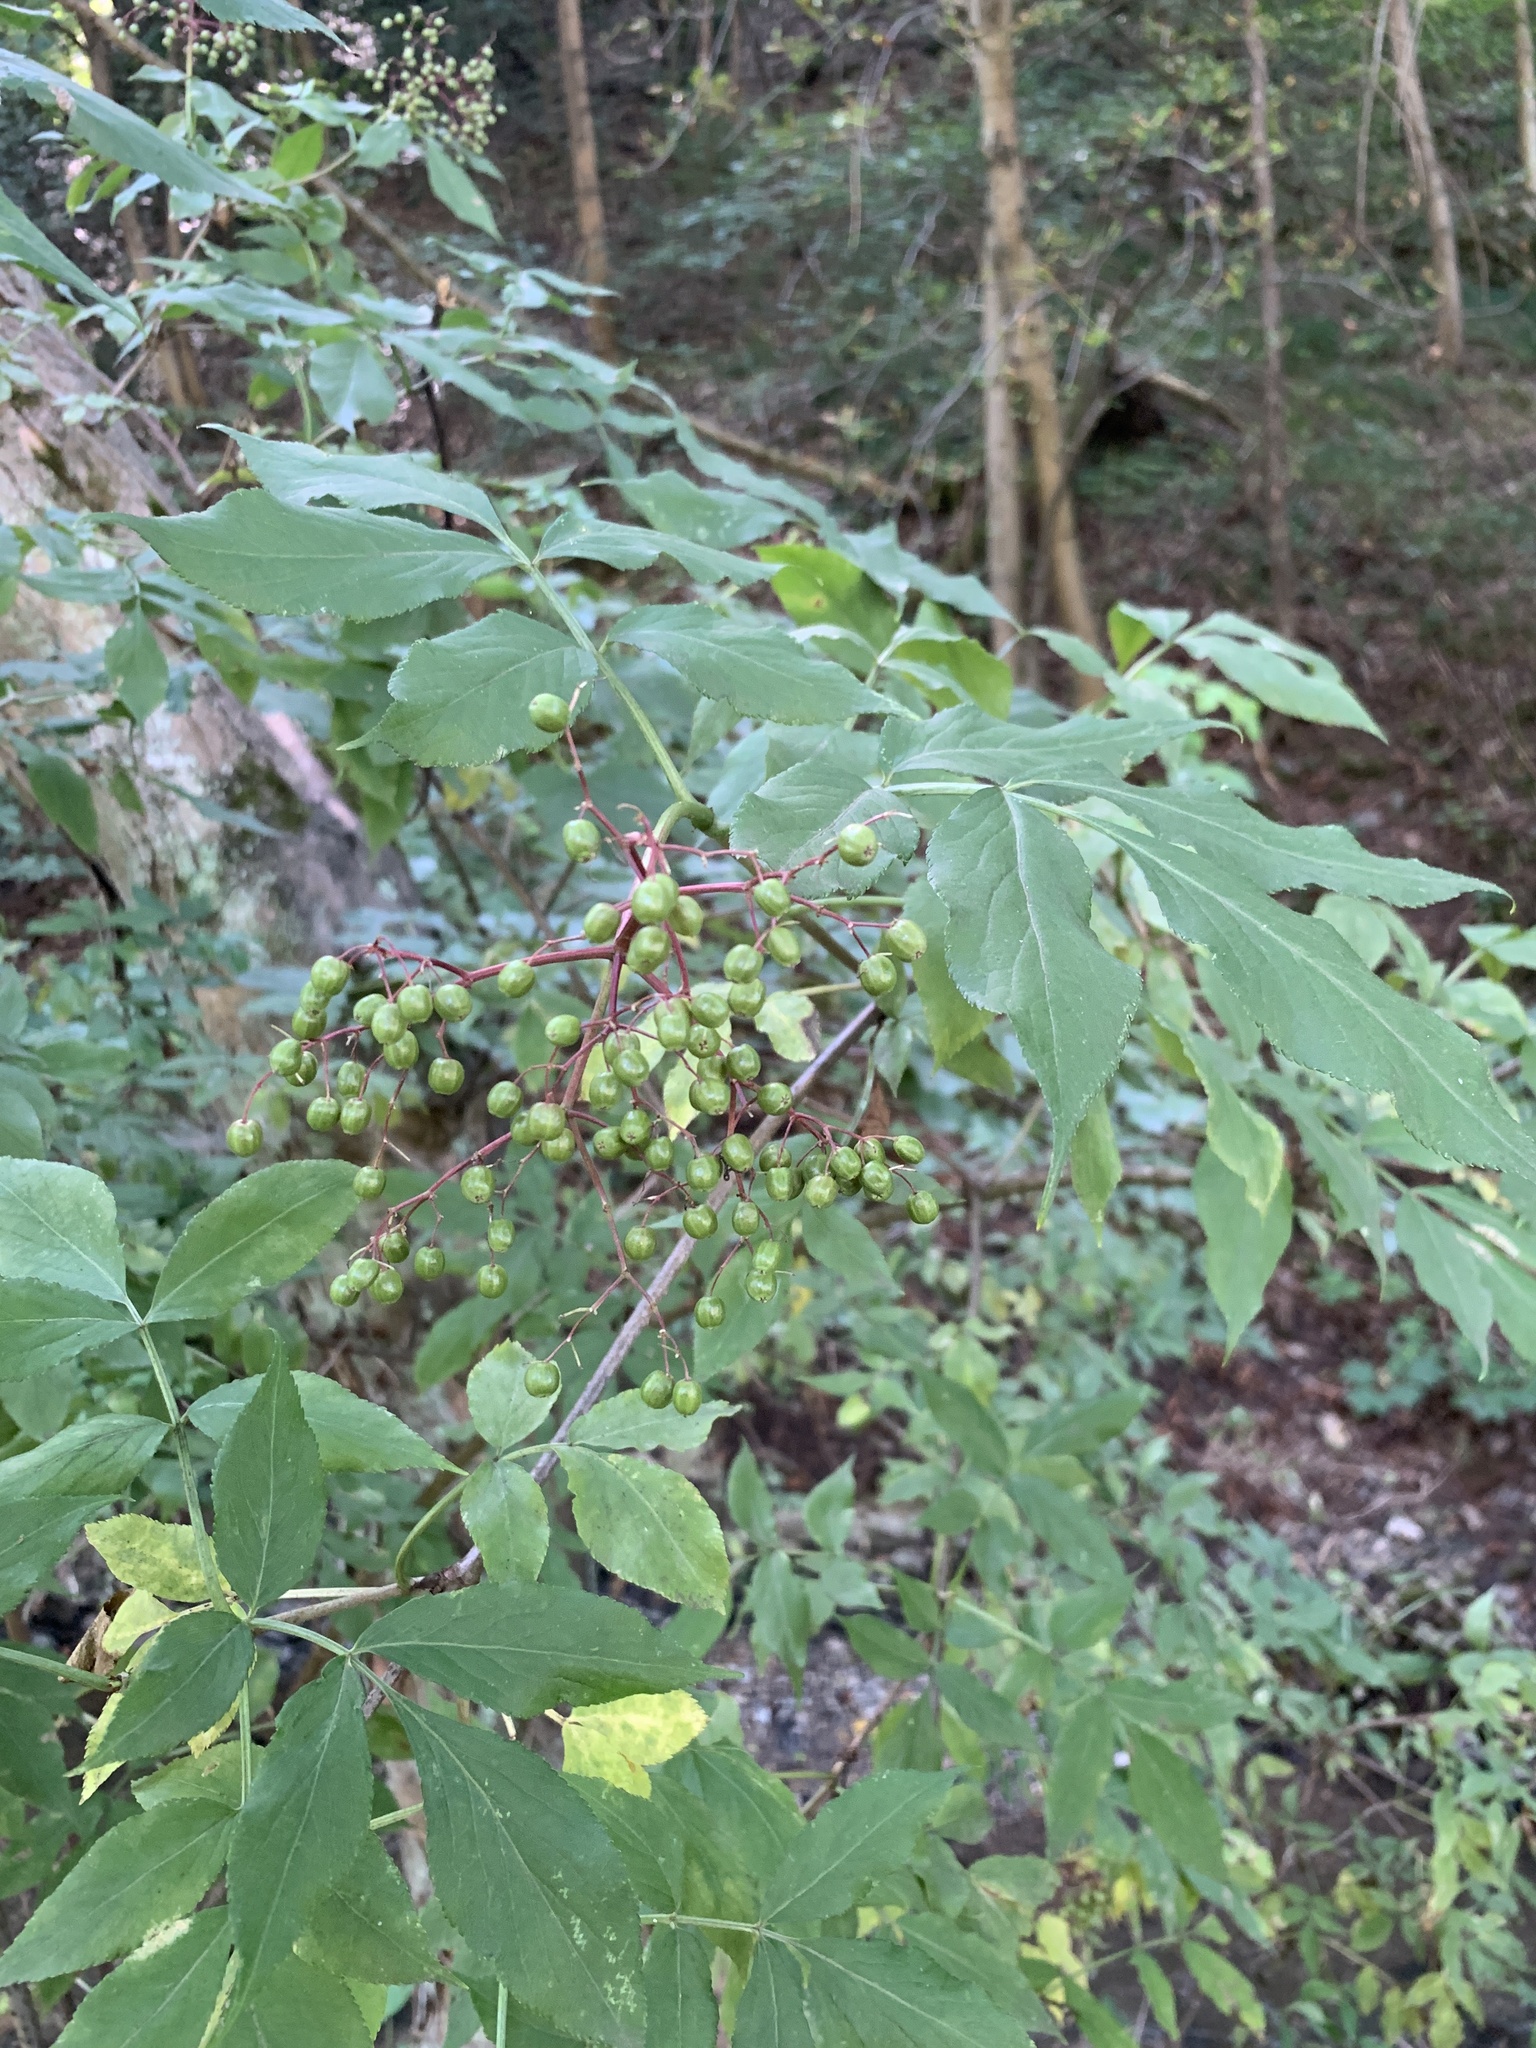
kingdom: Plantae
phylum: Tracheophyta
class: Magnoliopsida
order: Dipsacales
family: Viburnaceae
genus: Sambucus
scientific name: Sambucus nigra
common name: Elder
